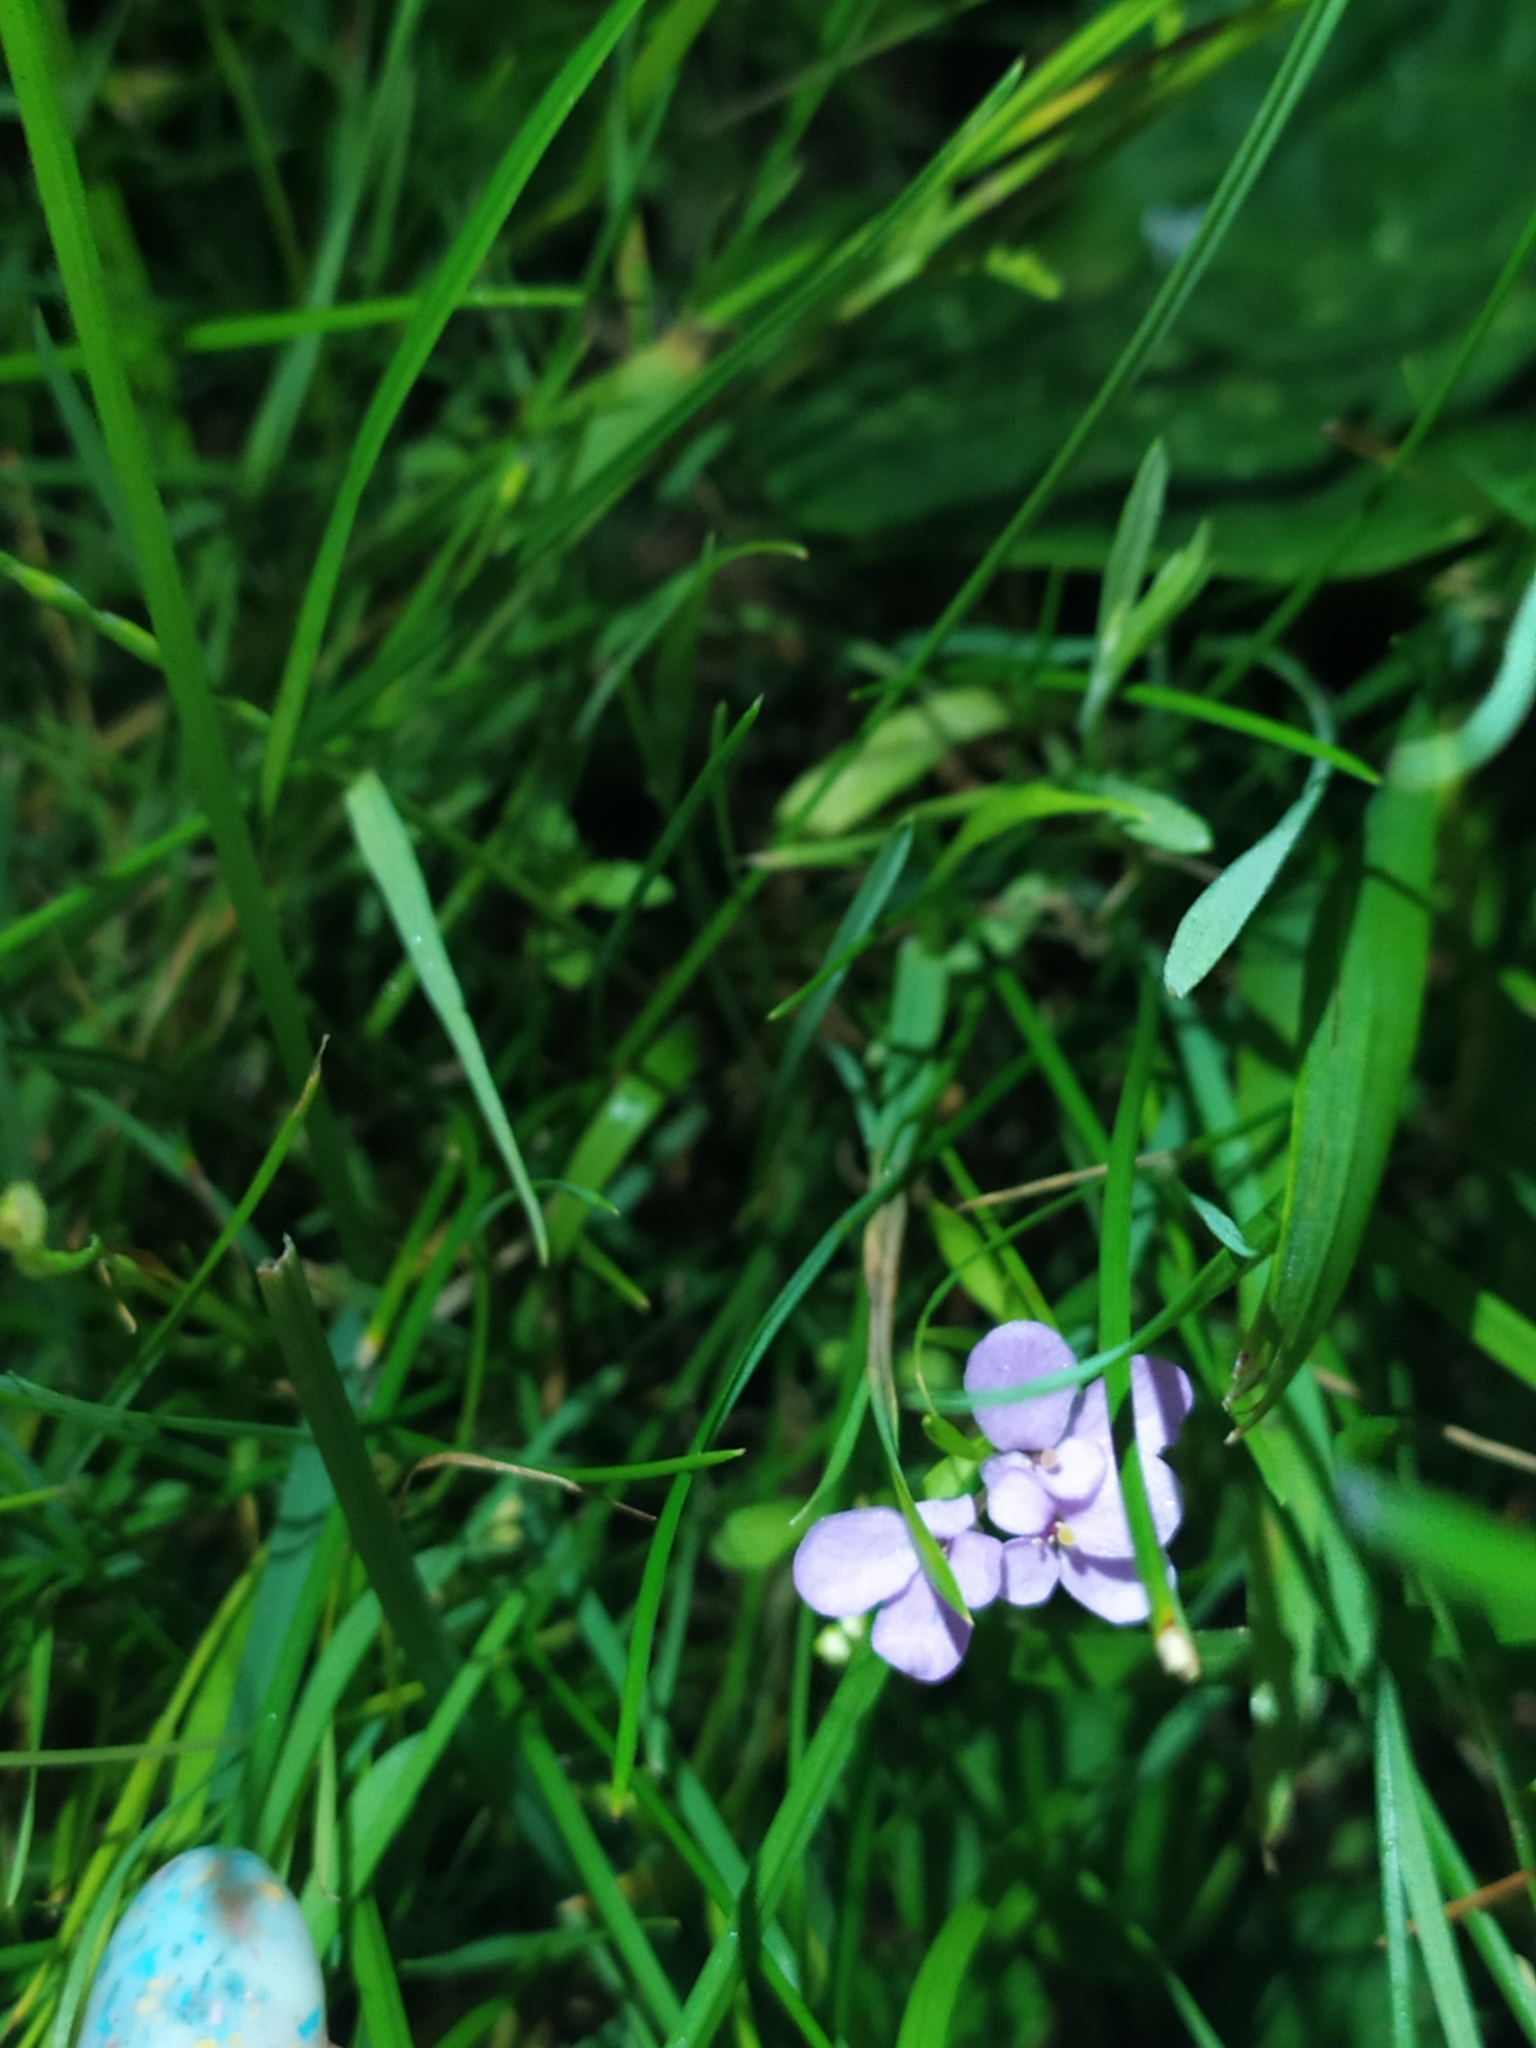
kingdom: Plantae
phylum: Tracheophyta
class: Magnoliopsida
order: Brassicales
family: Brassicaceae
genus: Iberis
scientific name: Iberis umbellata
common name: Globe candytuft
